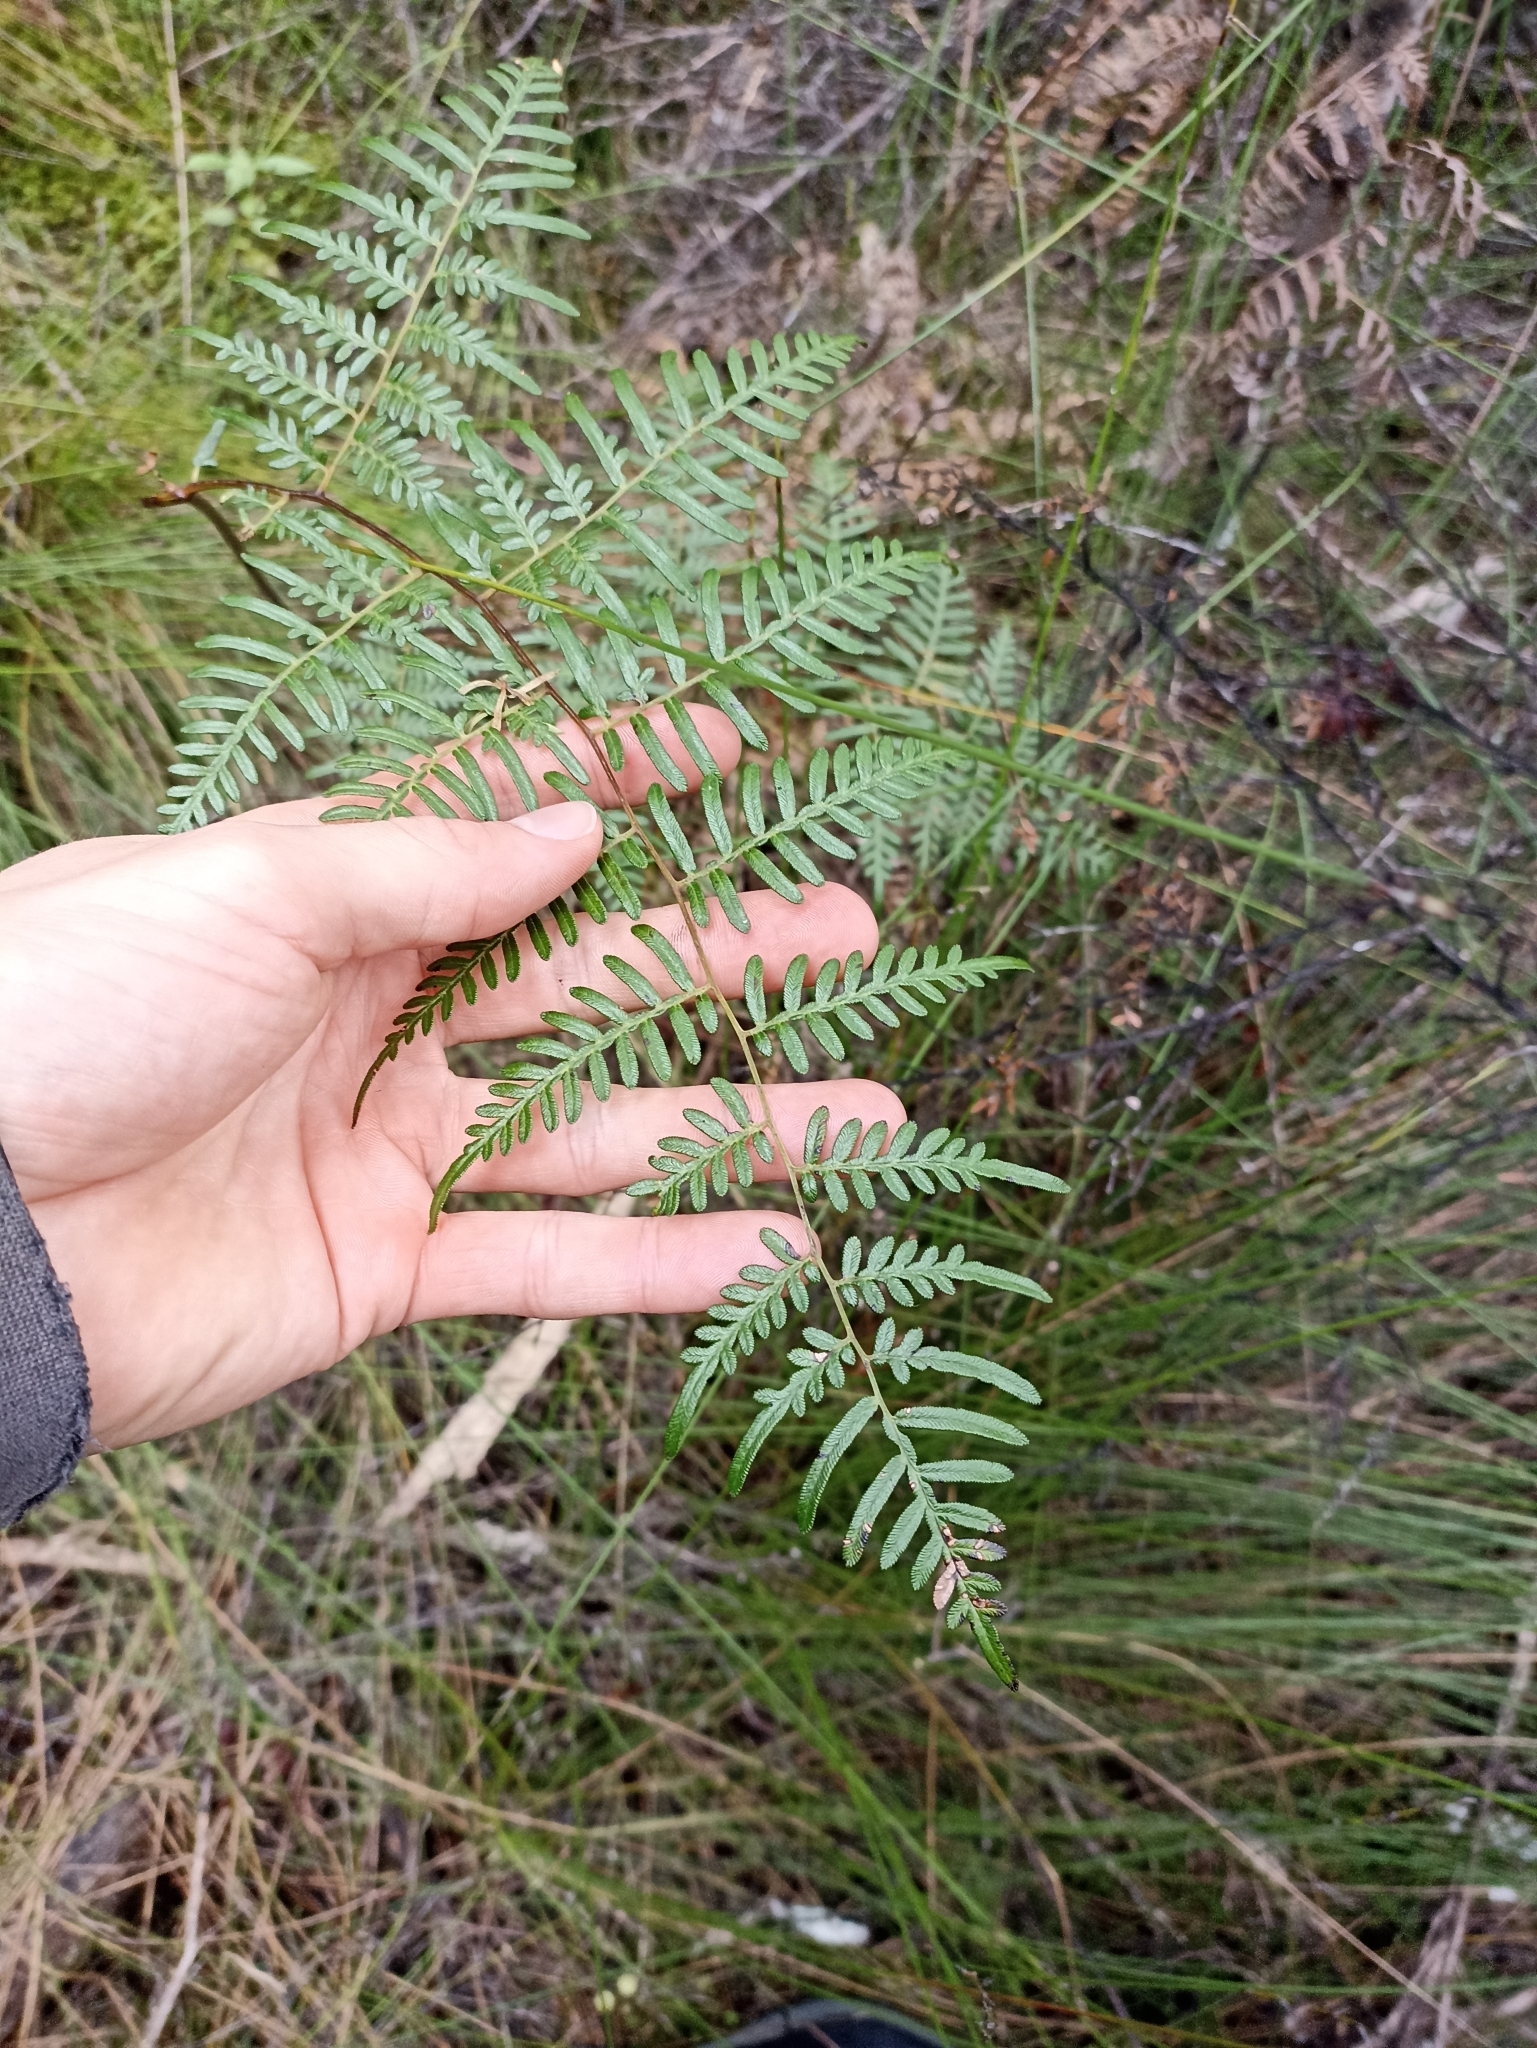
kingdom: Plantae
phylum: Tracheophyta
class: Polypodiopsida
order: Polypodiales
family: Dennstaedtiaceae
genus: Pteridium
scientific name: Pteridium esculentum
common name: Bracken fern
